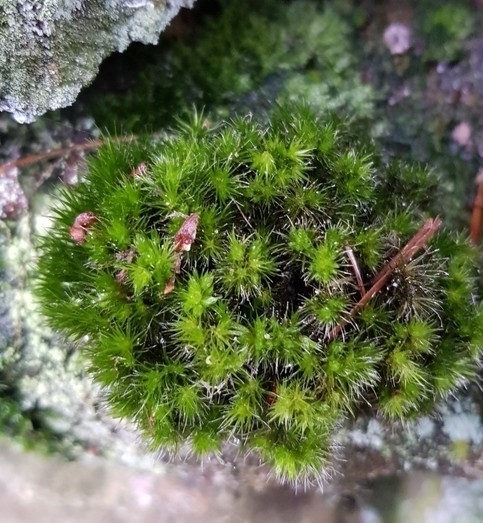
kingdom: Plantae
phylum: Bryophyta
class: Bryopsida
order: Dicranales
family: Leucobryaceae
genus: Campylopus
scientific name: Campylopus introflexus
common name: Heath star moss
